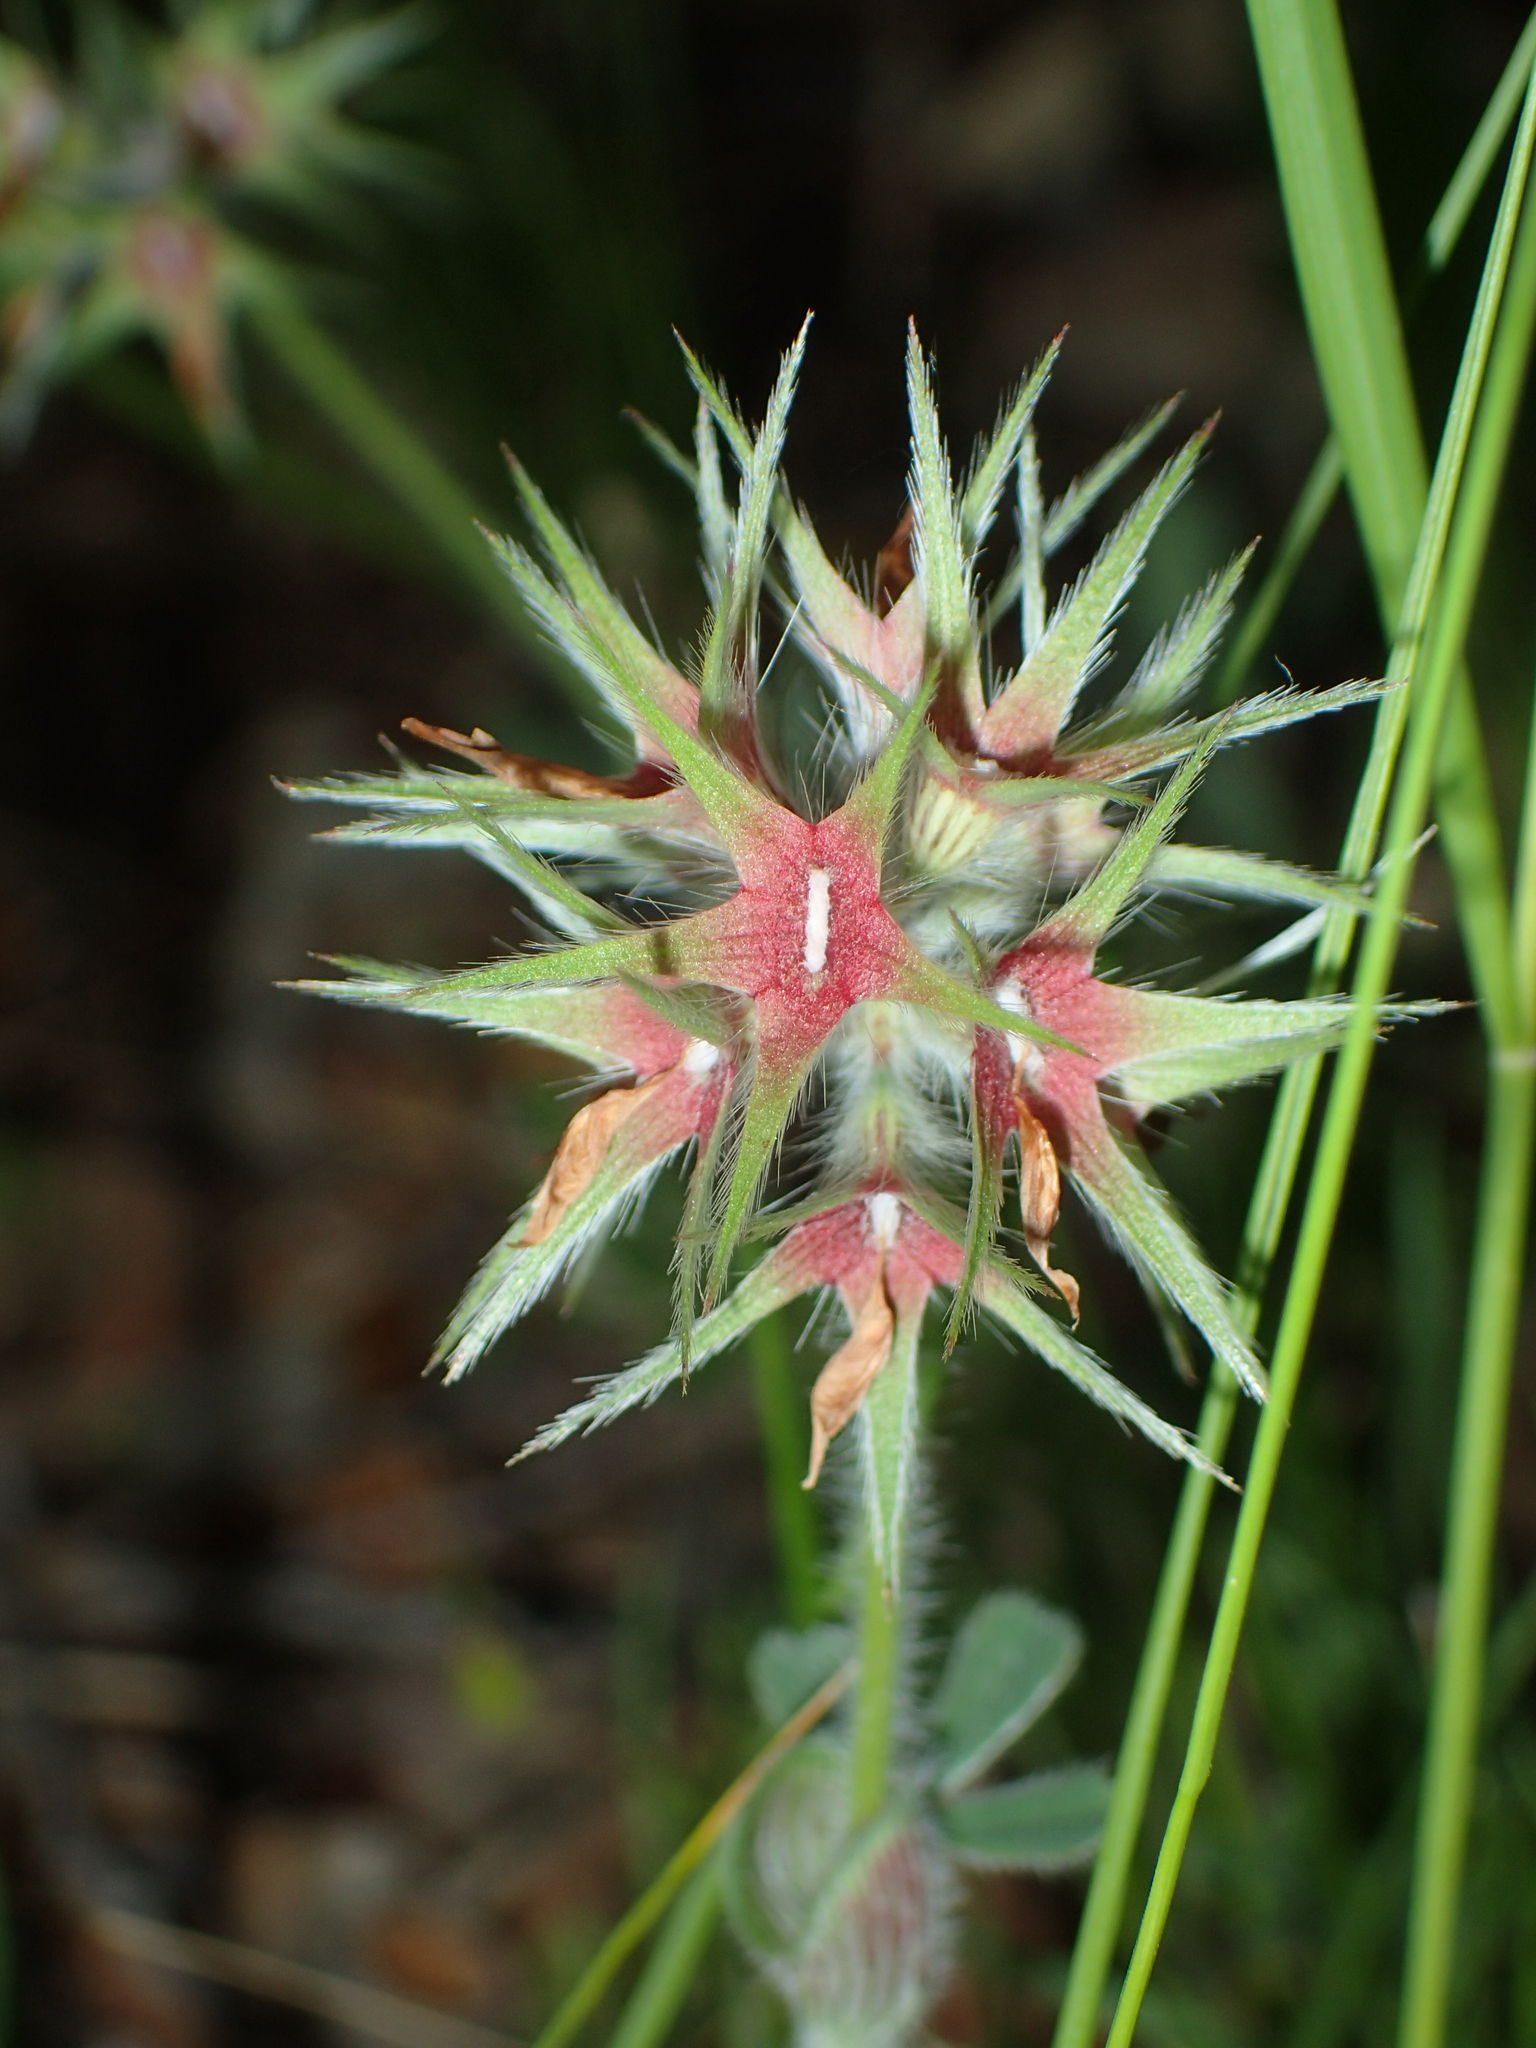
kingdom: Plantae
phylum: Tracheophyta
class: Magnoliopsida
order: Fabales
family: Fabaceae
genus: Trifolium
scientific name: Trifolium stellatum
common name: Starry clover
